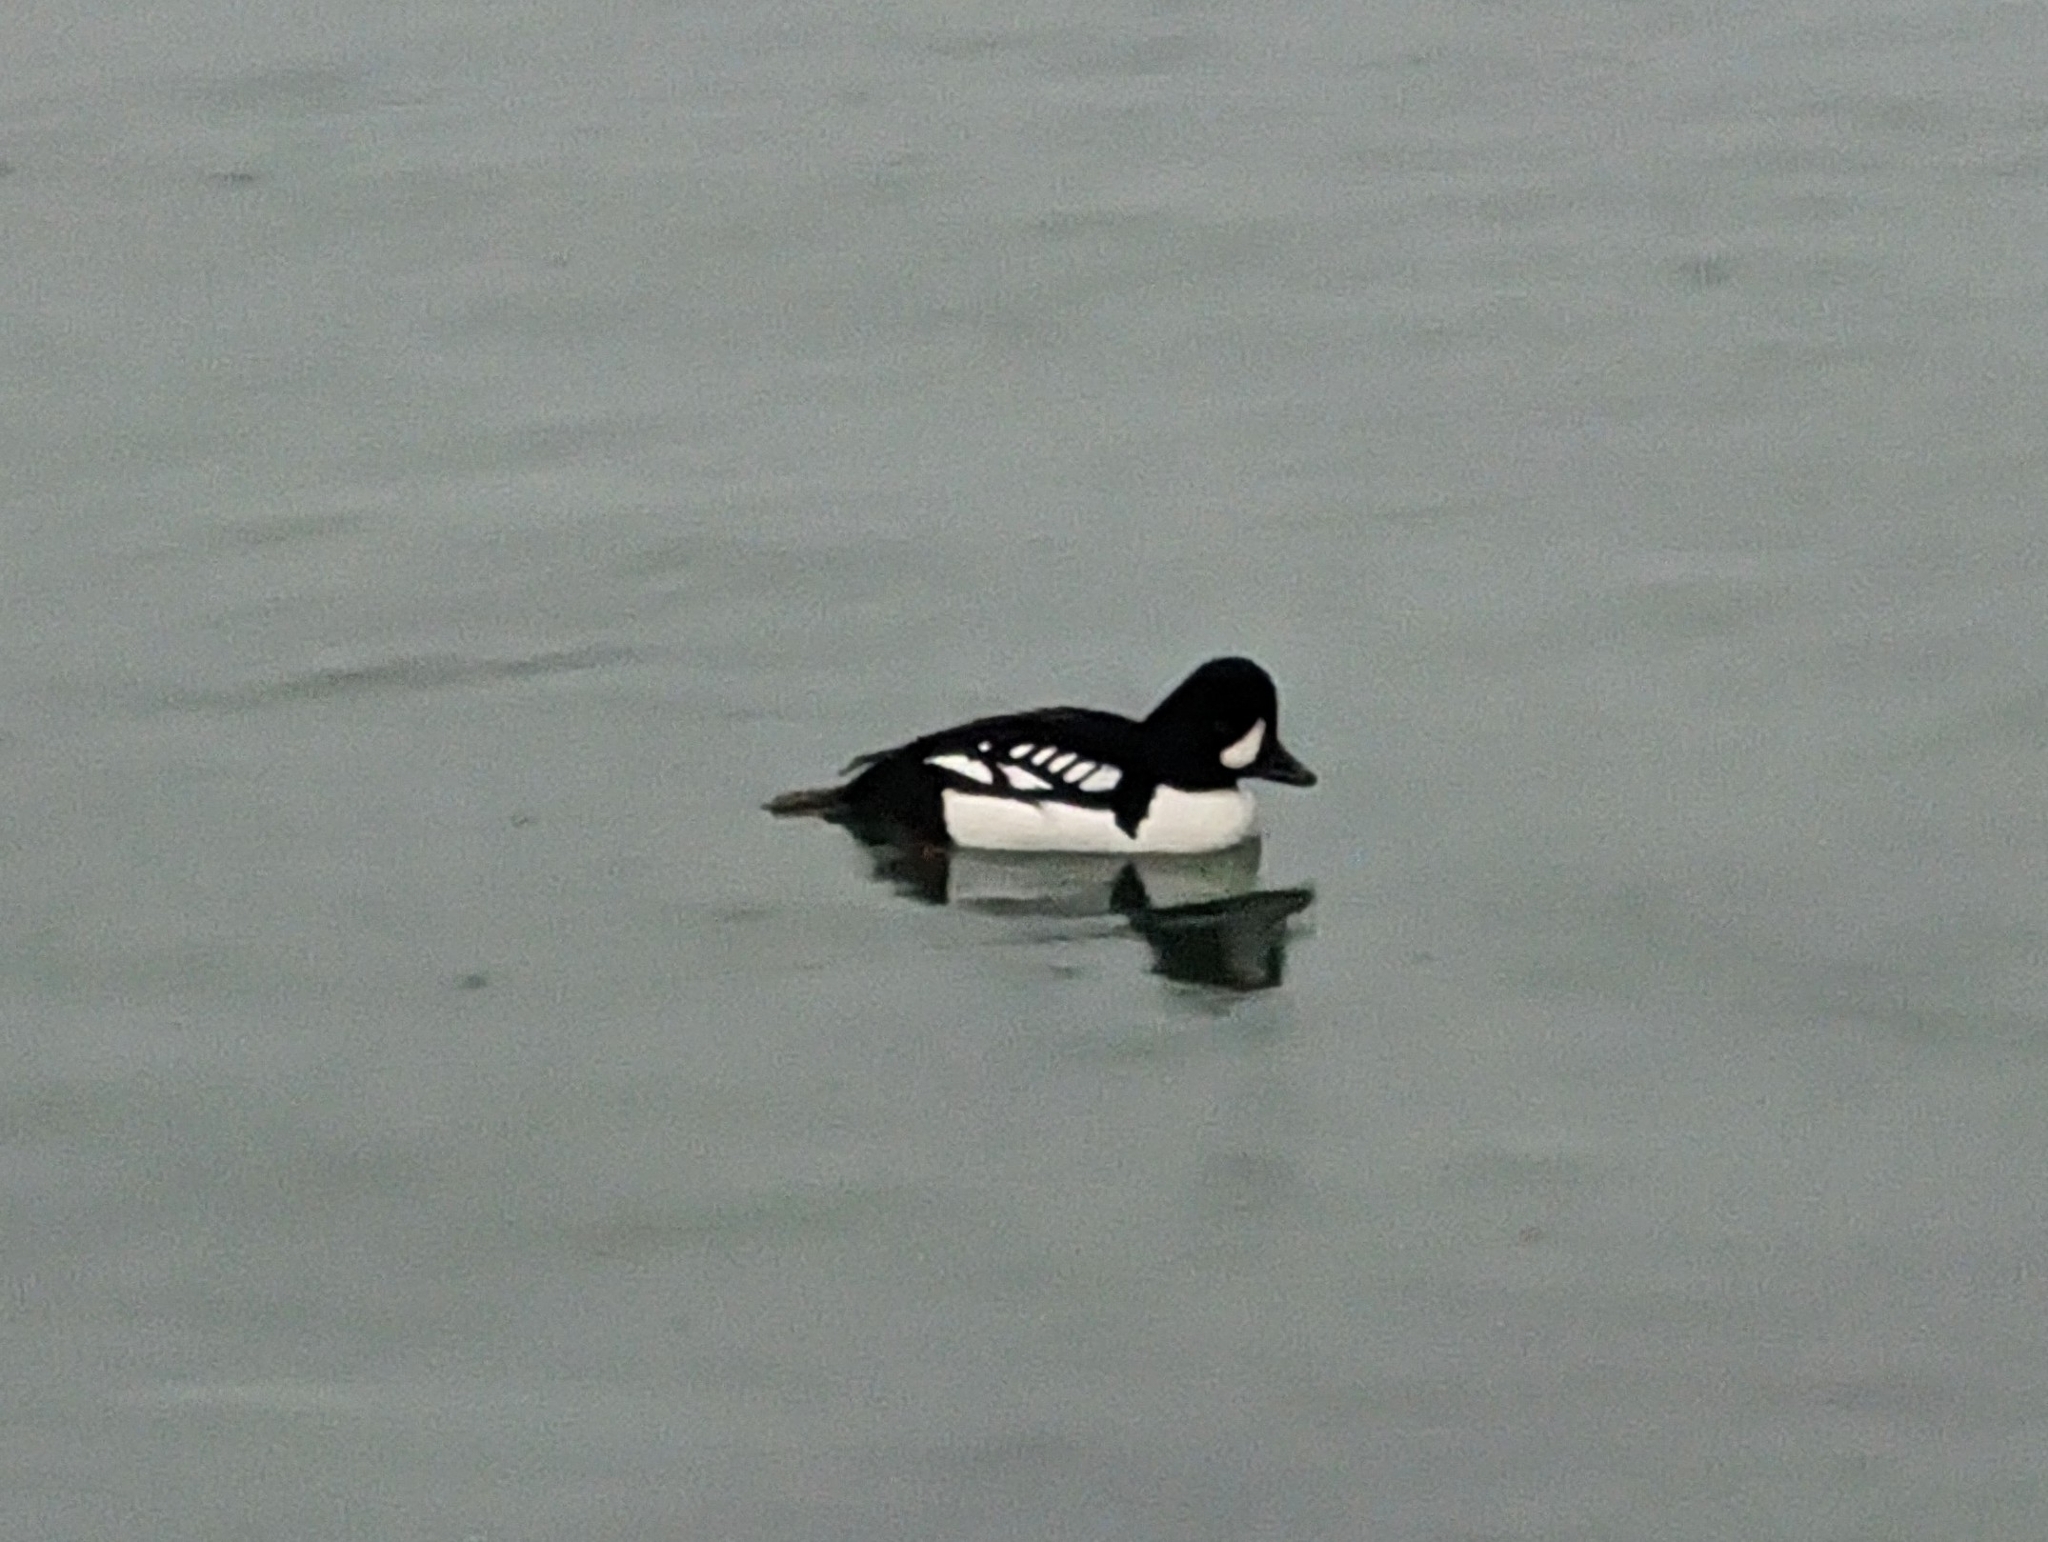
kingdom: Animalia
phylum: Chordata
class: Aves
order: Anseriformes
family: Anatidae
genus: Bucephala
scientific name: Bucephala islandica
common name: Barrow's goldeneye
